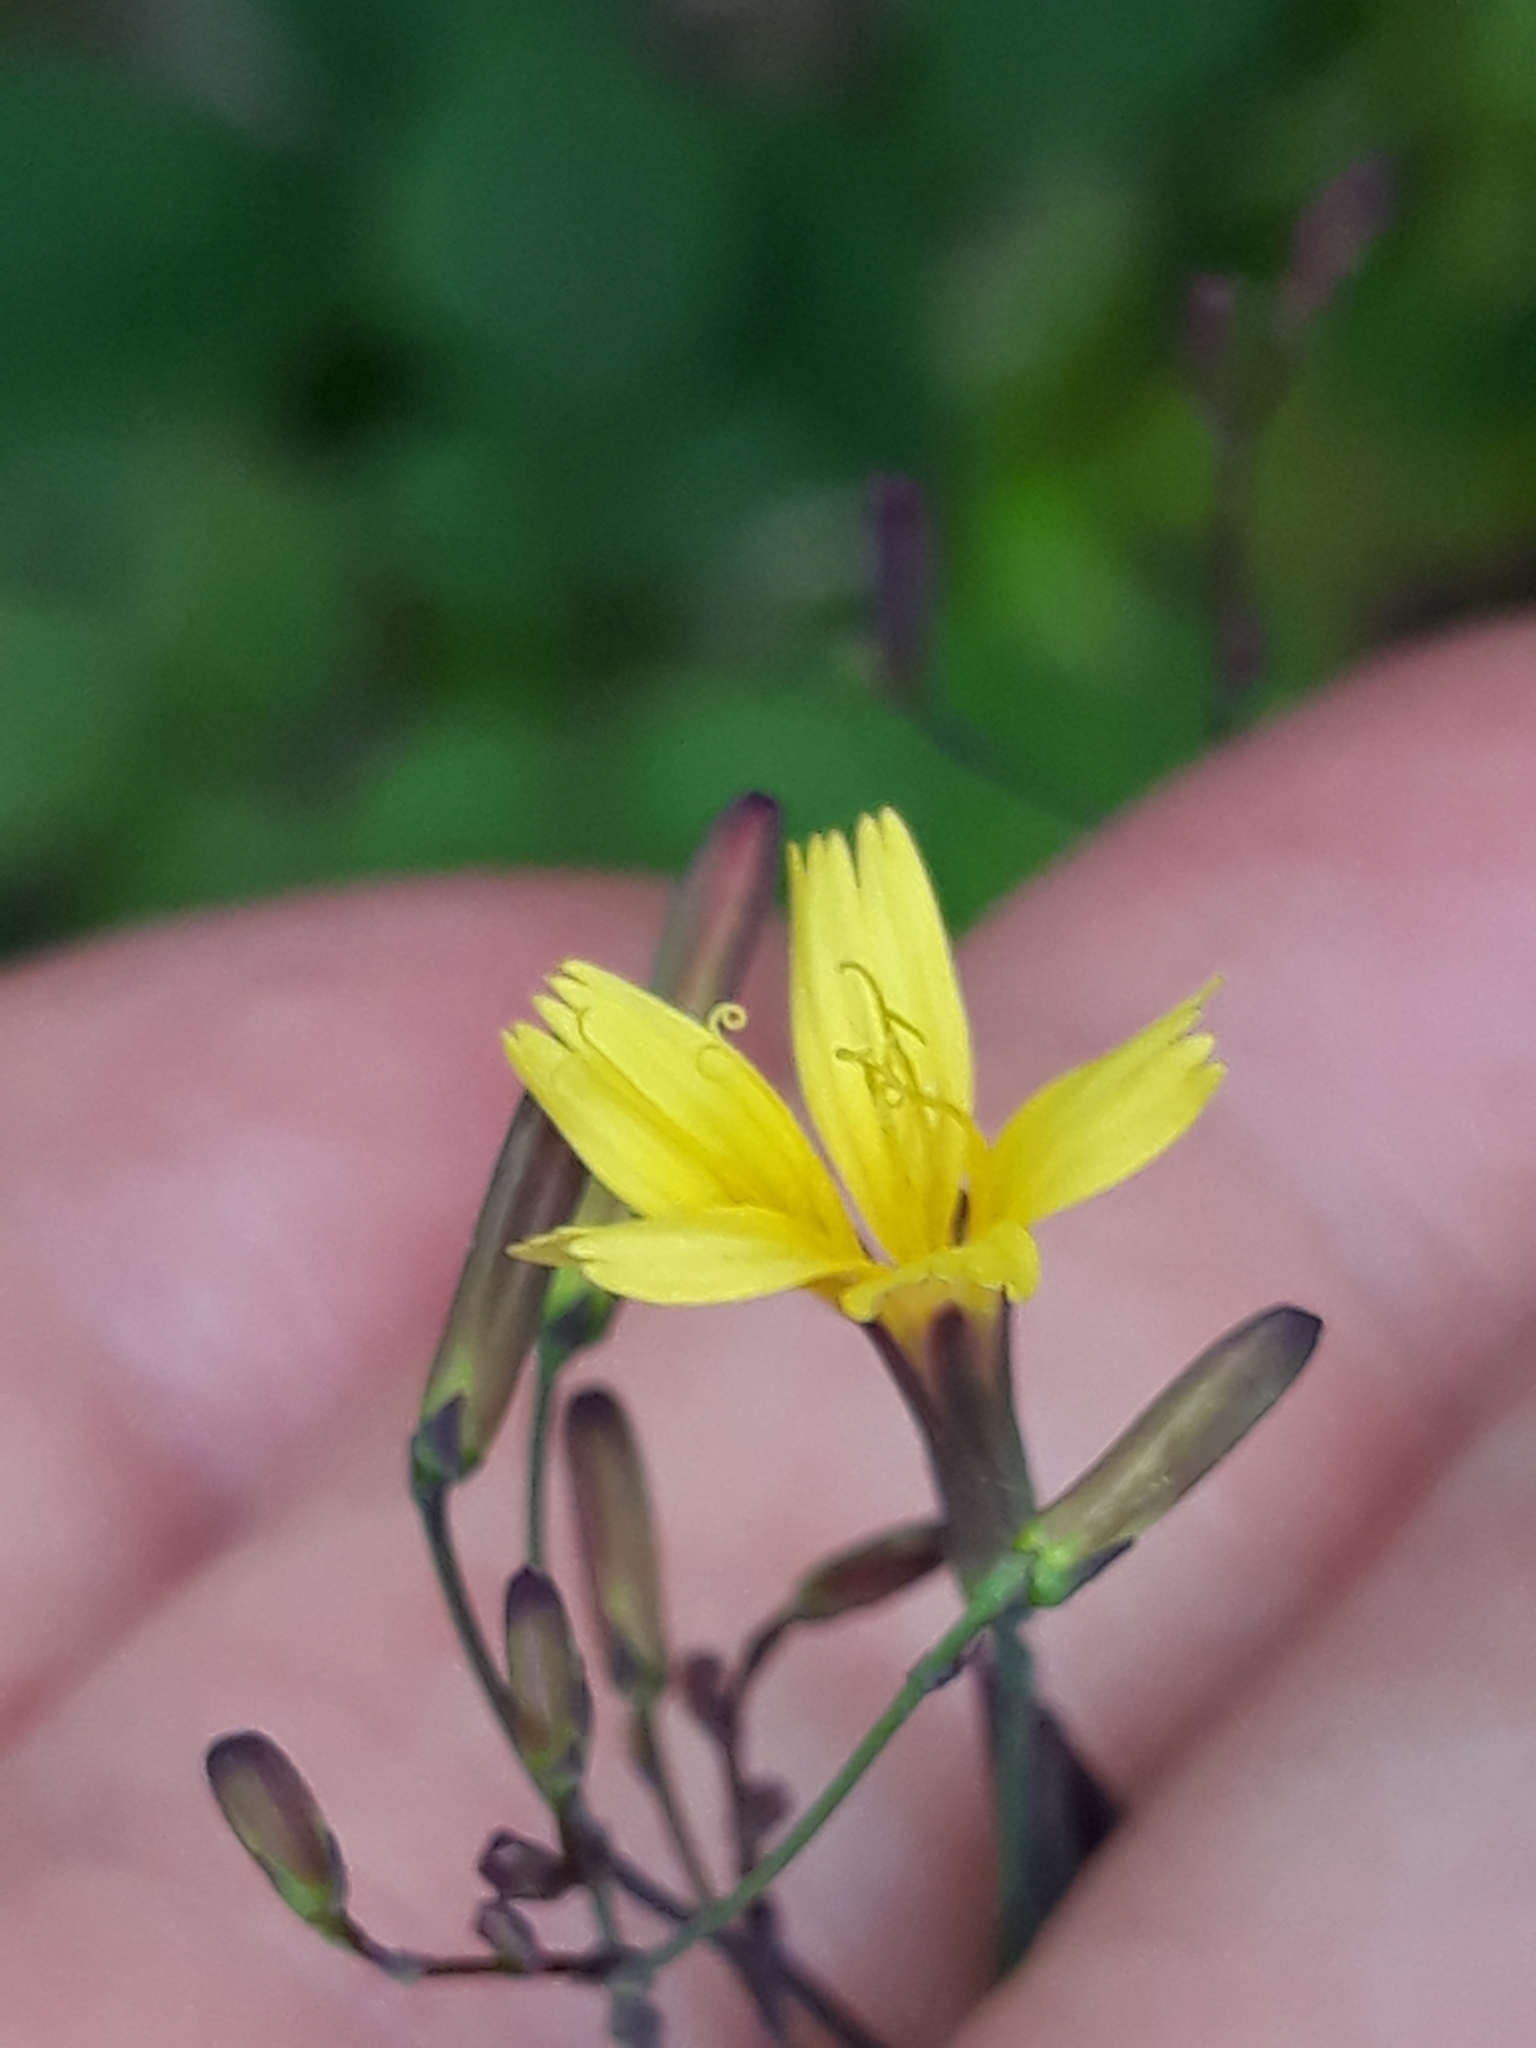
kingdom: Plantae
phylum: Tracheophyta
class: Magnoliopsida
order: Asterales
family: Asteraceae
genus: Mycelis
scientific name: Mycelis muralis
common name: Wall lettuce
